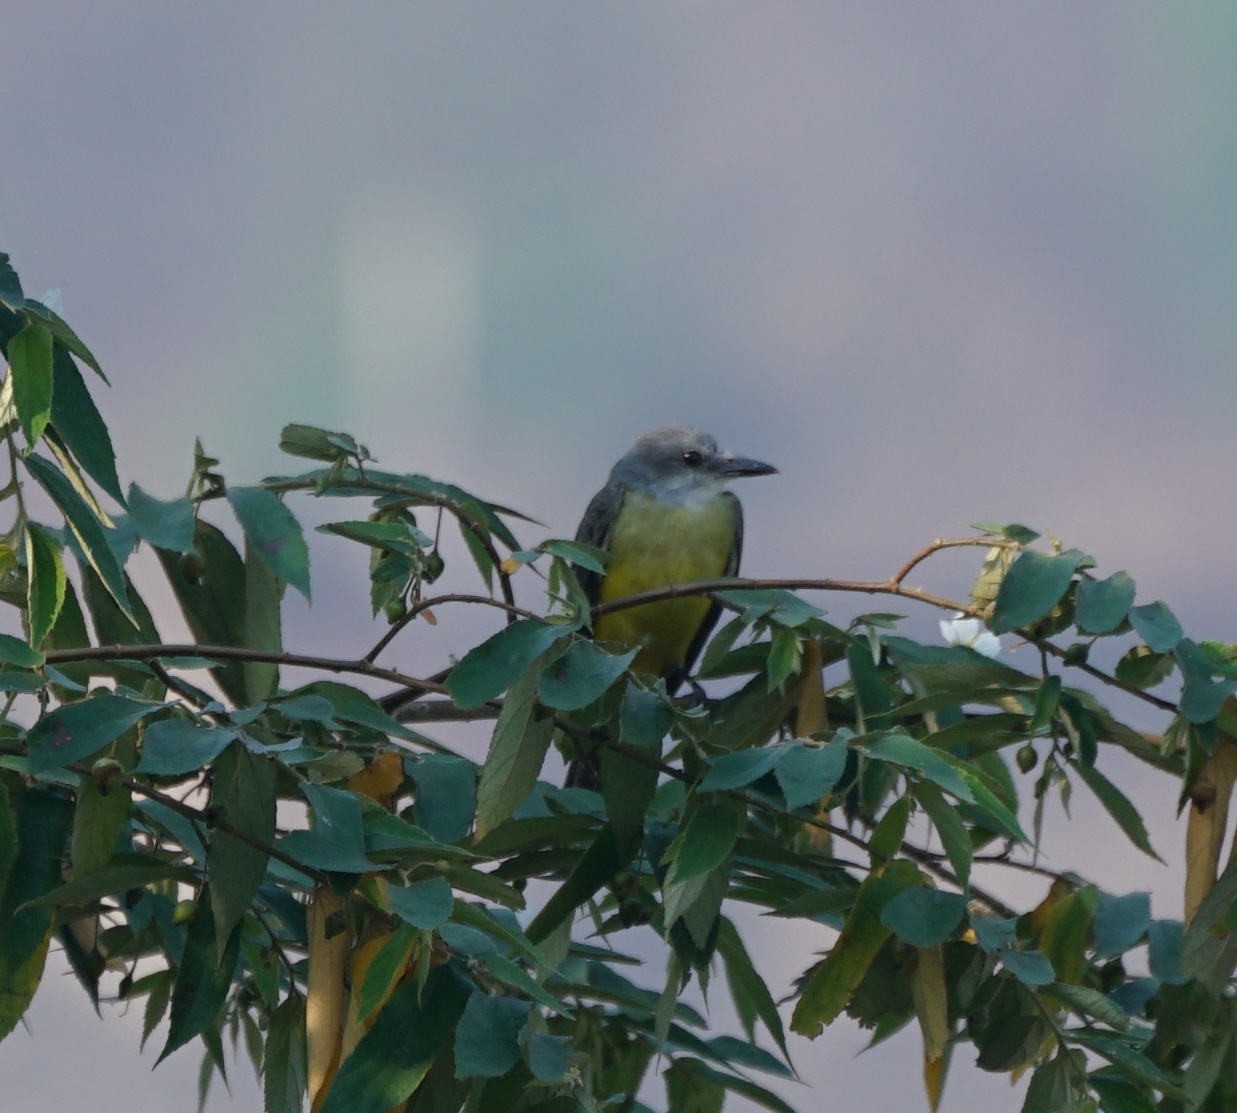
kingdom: Animalia
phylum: Chordata
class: Aves
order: Passeriformes
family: Tyrannidae
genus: Tyrannus
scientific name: Tyrannus melancholicus
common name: Tropical kingbird
